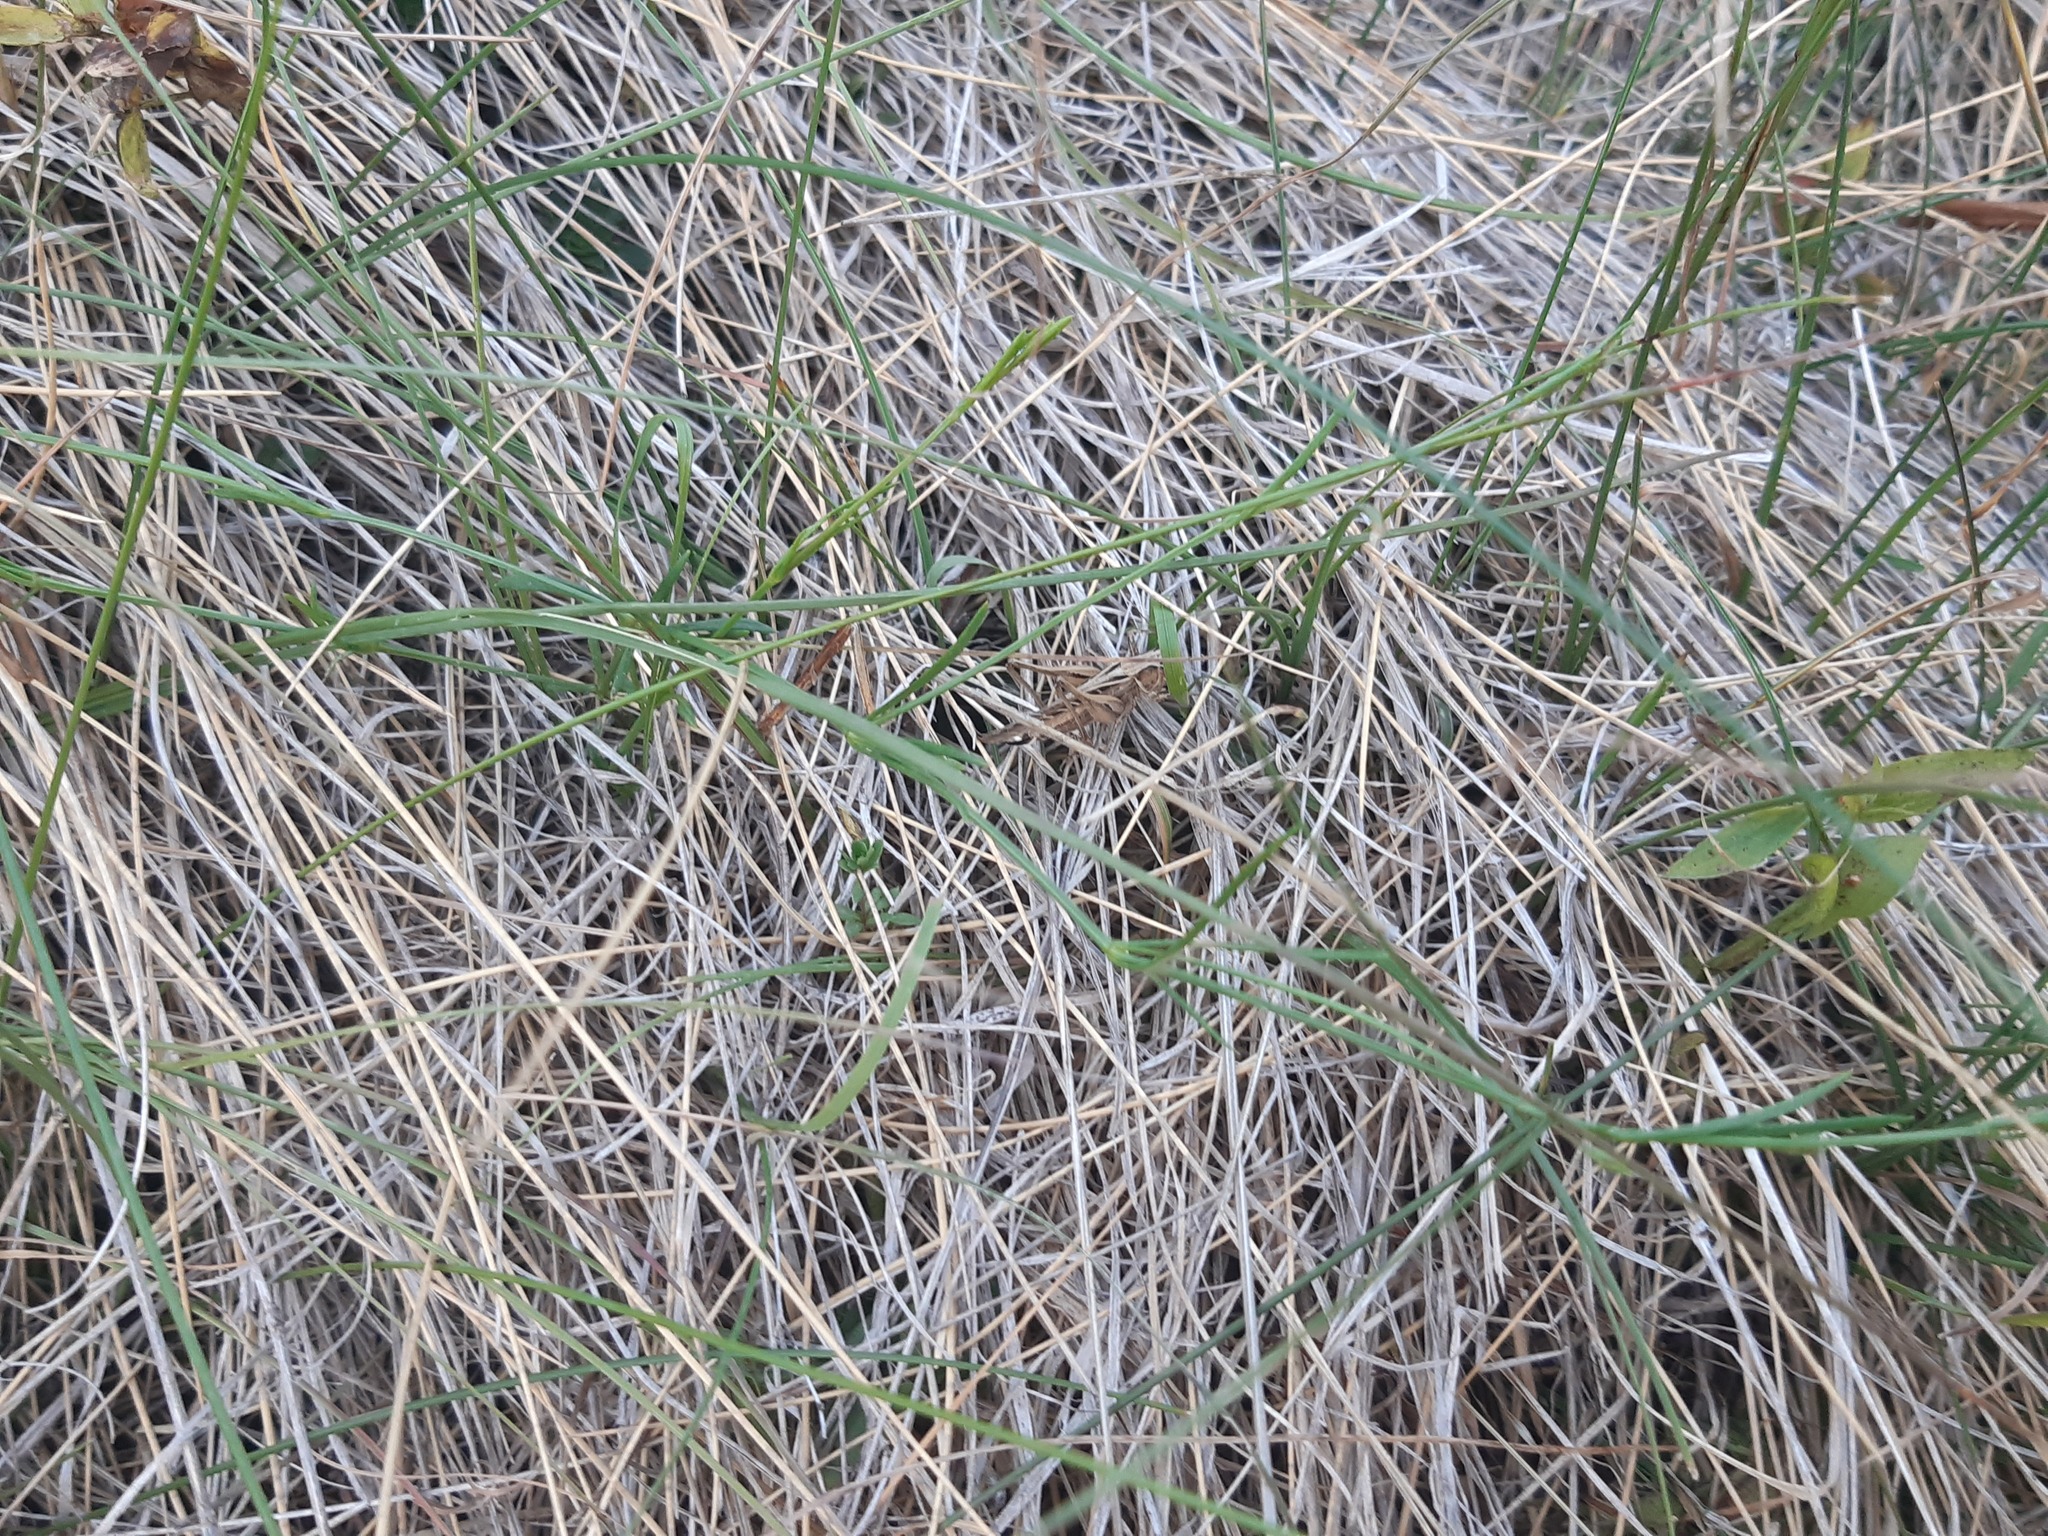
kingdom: Animalia
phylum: Arthropoda
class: Insecta
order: Orthoptera
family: Tettigoniidae
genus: Tessellana
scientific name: Tessellana tessellata
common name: Grasshopper
